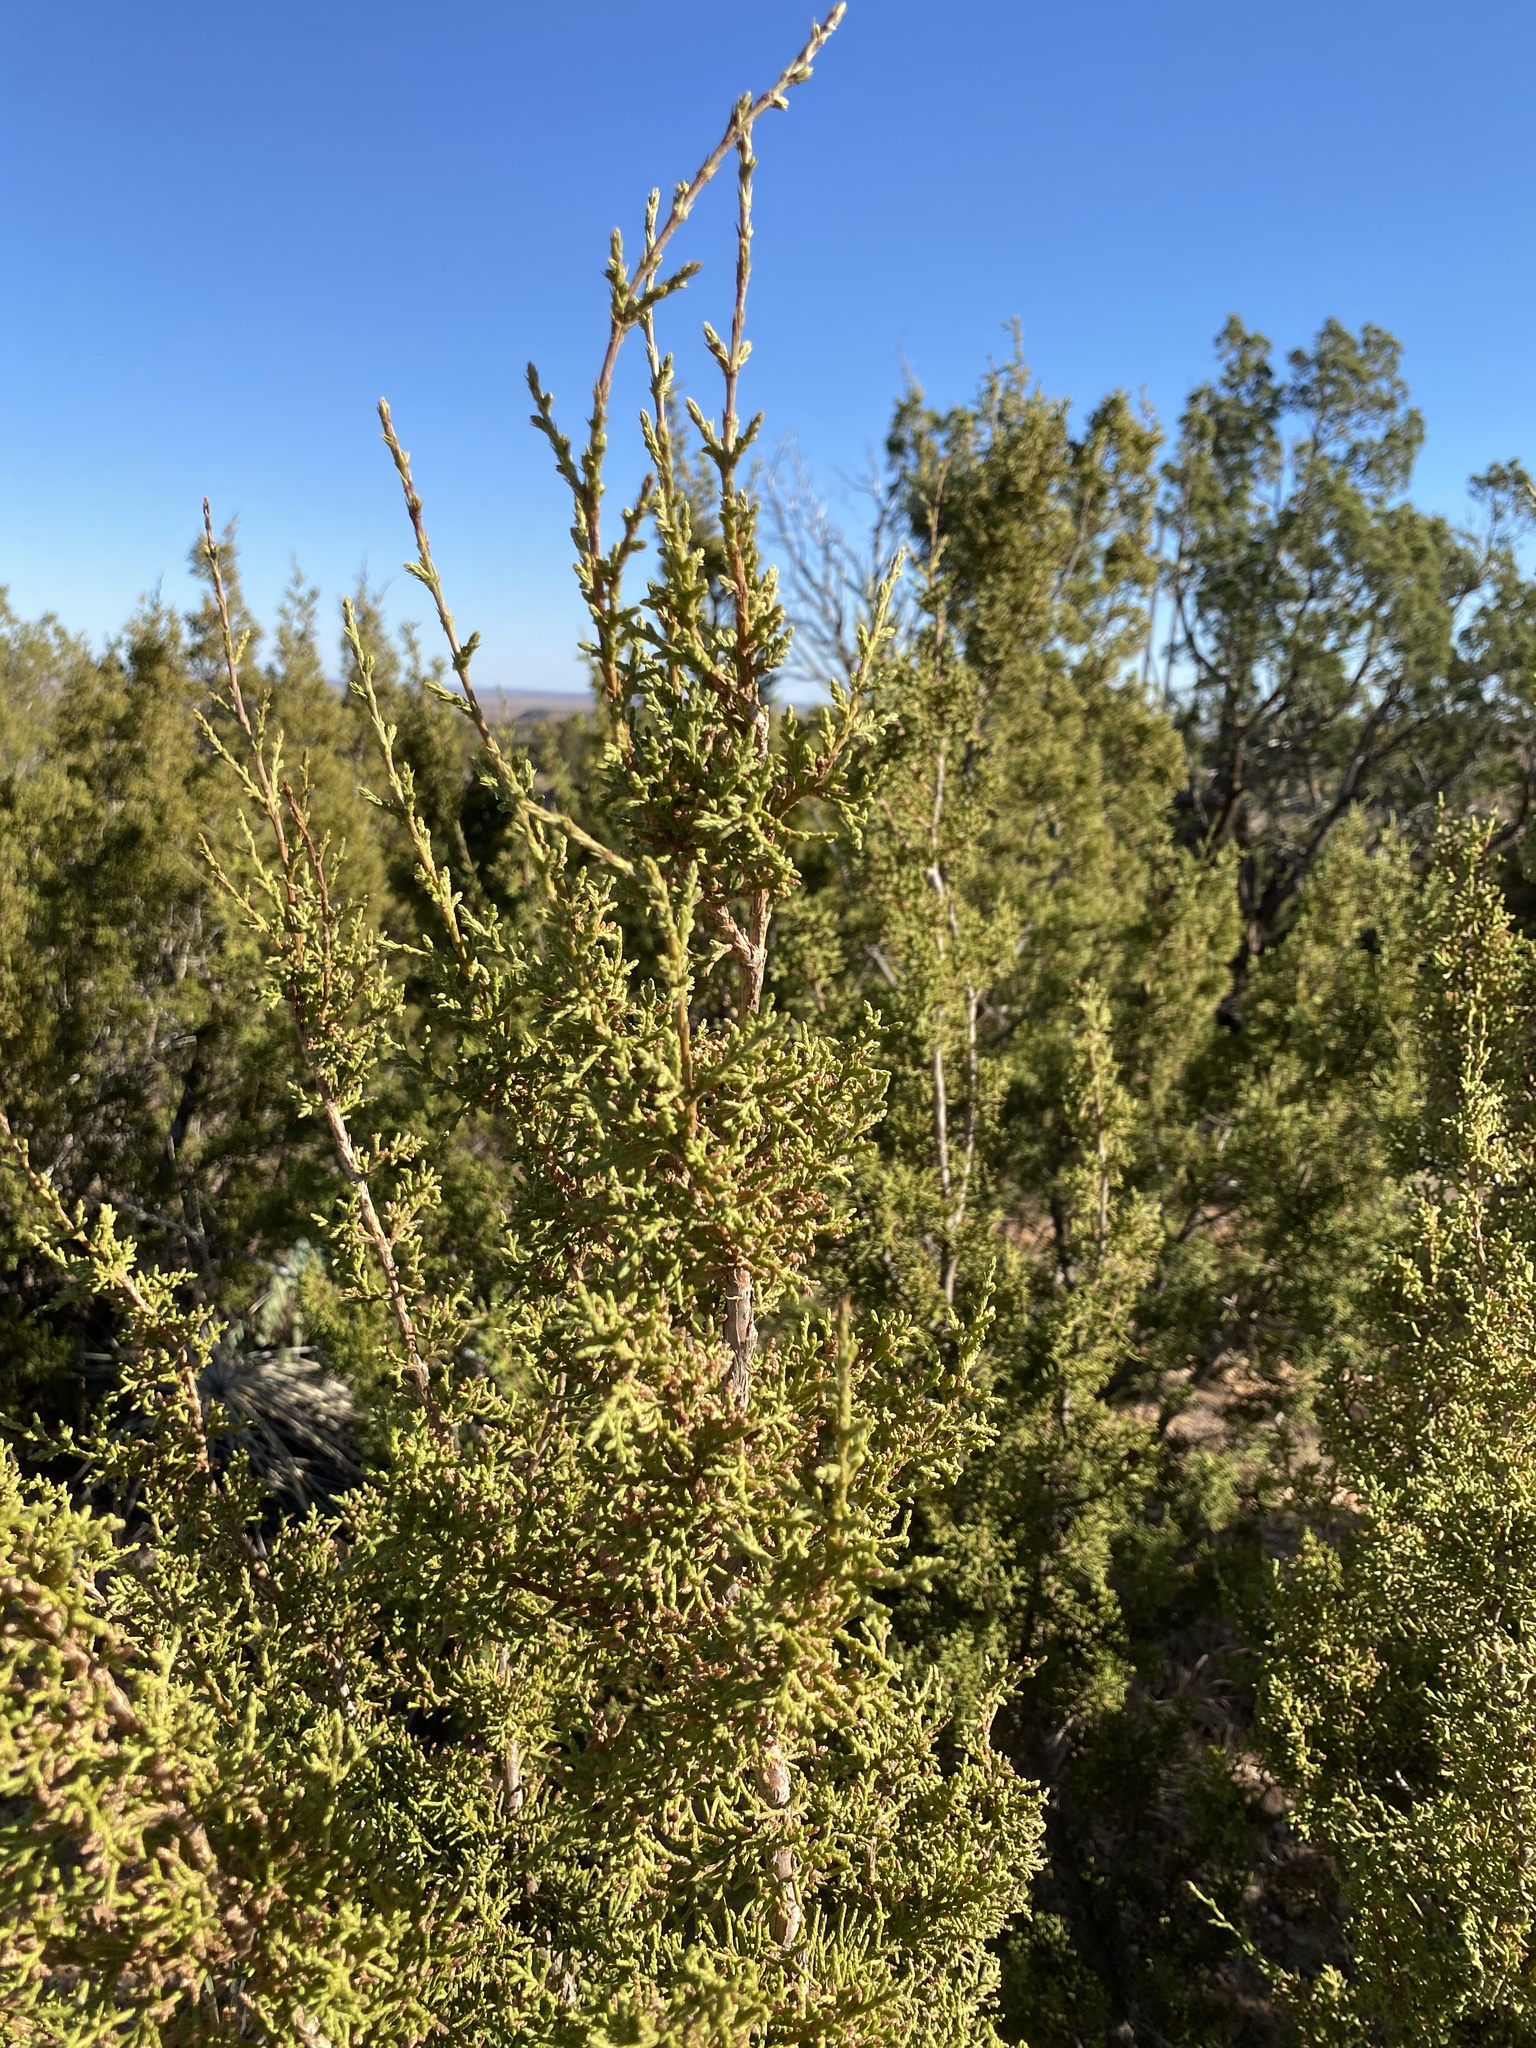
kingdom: Plantae
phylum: Tracheophyta
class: Pinopsida
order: Pinales
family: Cupressaceae
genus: Juniperus
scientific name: Juniperus pinchotii
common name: Pinchot juniper
